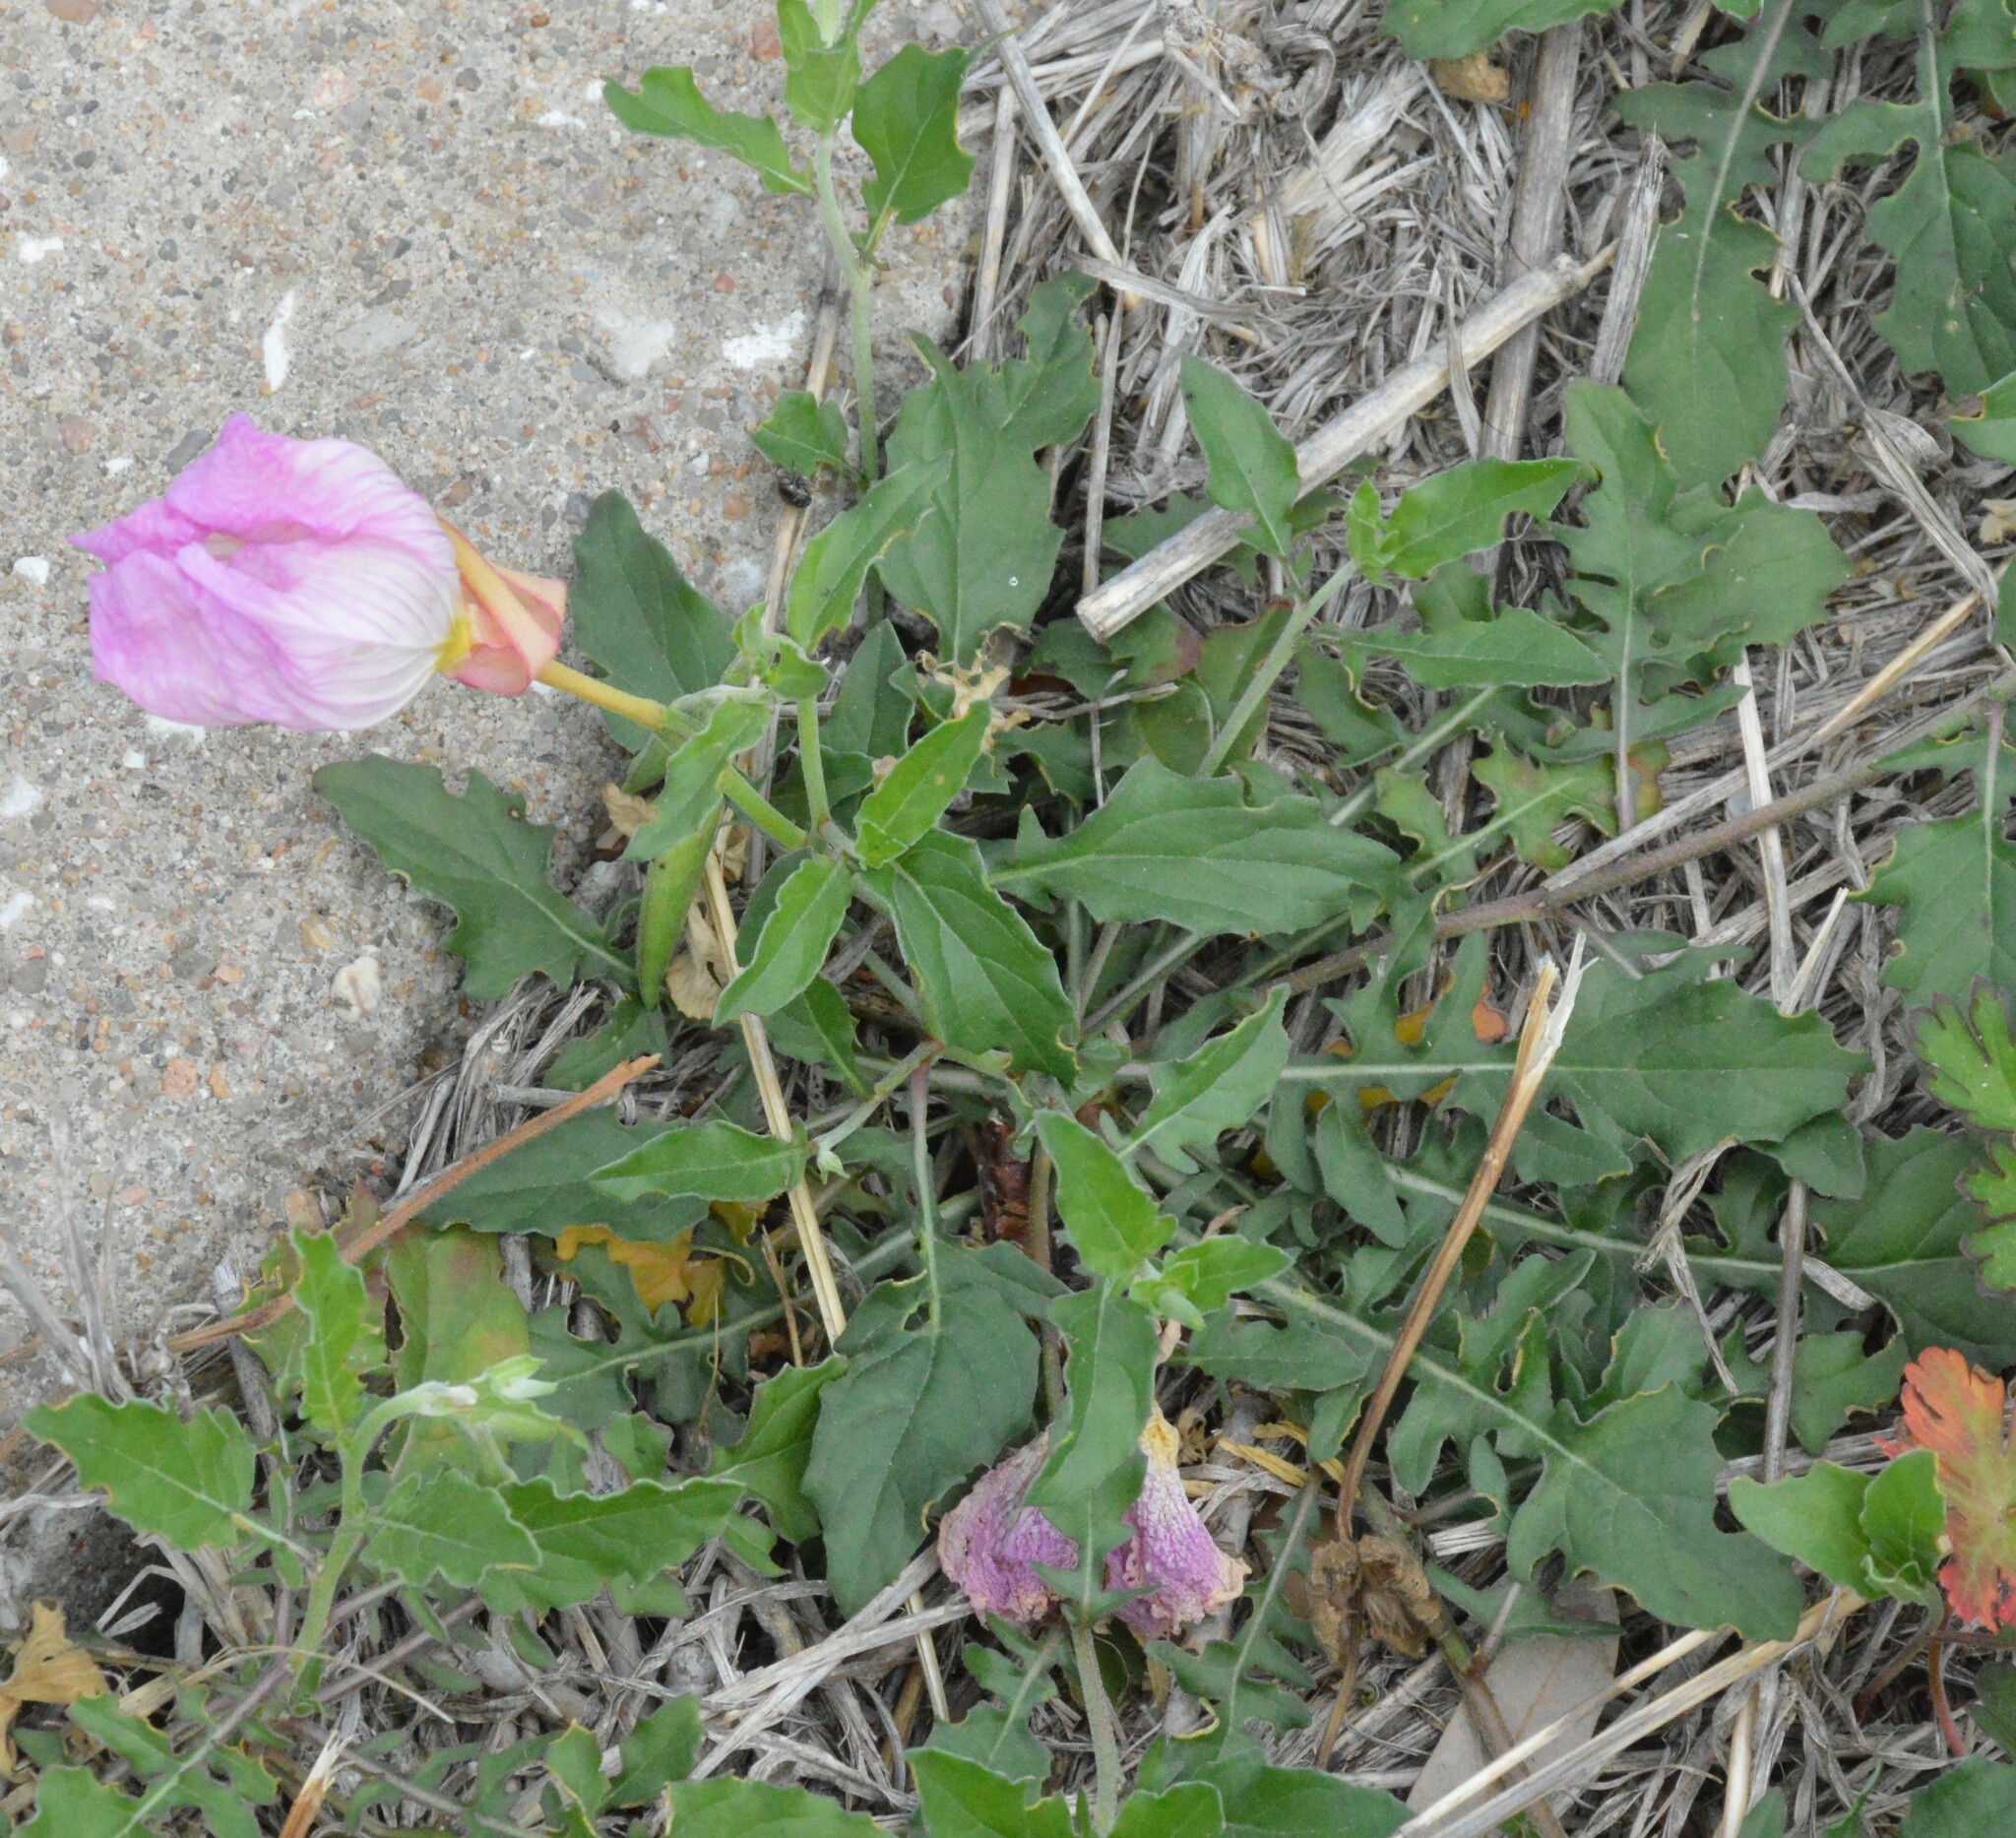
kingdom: Plantae
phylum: Tracheophyta
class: Magnoliopsida
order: Myrtales
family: Onagraceae
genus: Oenothera
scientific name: Oenothera speciosa
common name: White evening-primrose
